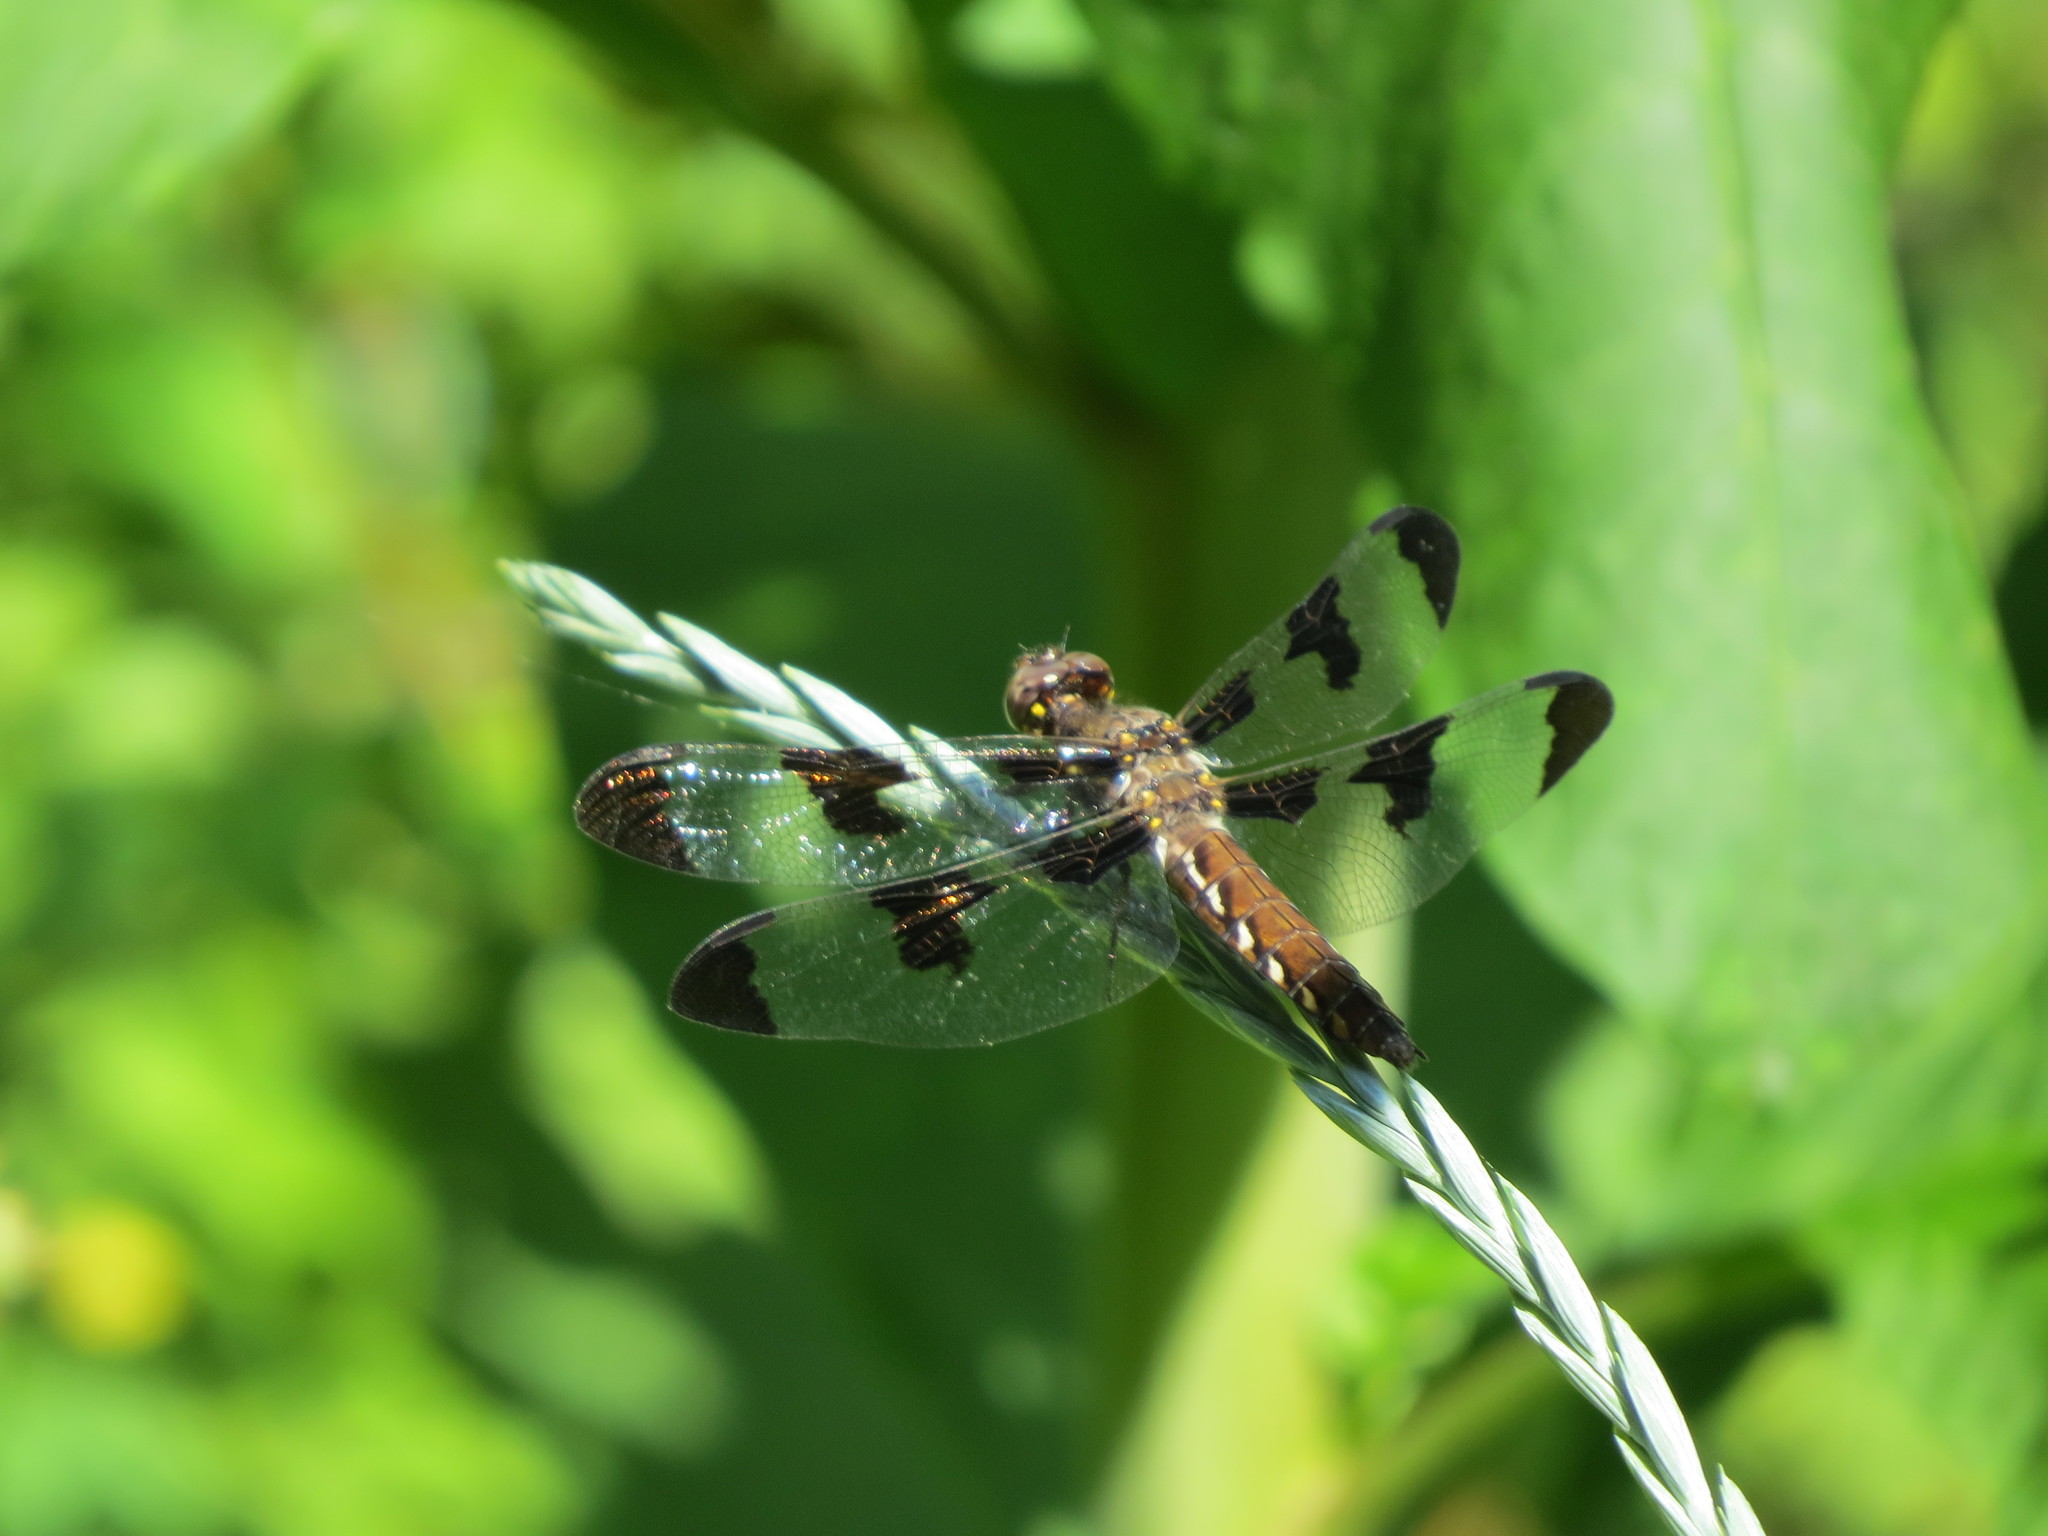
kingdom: Animalia
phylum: Arthropoda
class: Insecta
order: Odonata
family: Libellulidae
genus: Plathemis
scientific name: Plathemis lydia
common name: Common whitetail
